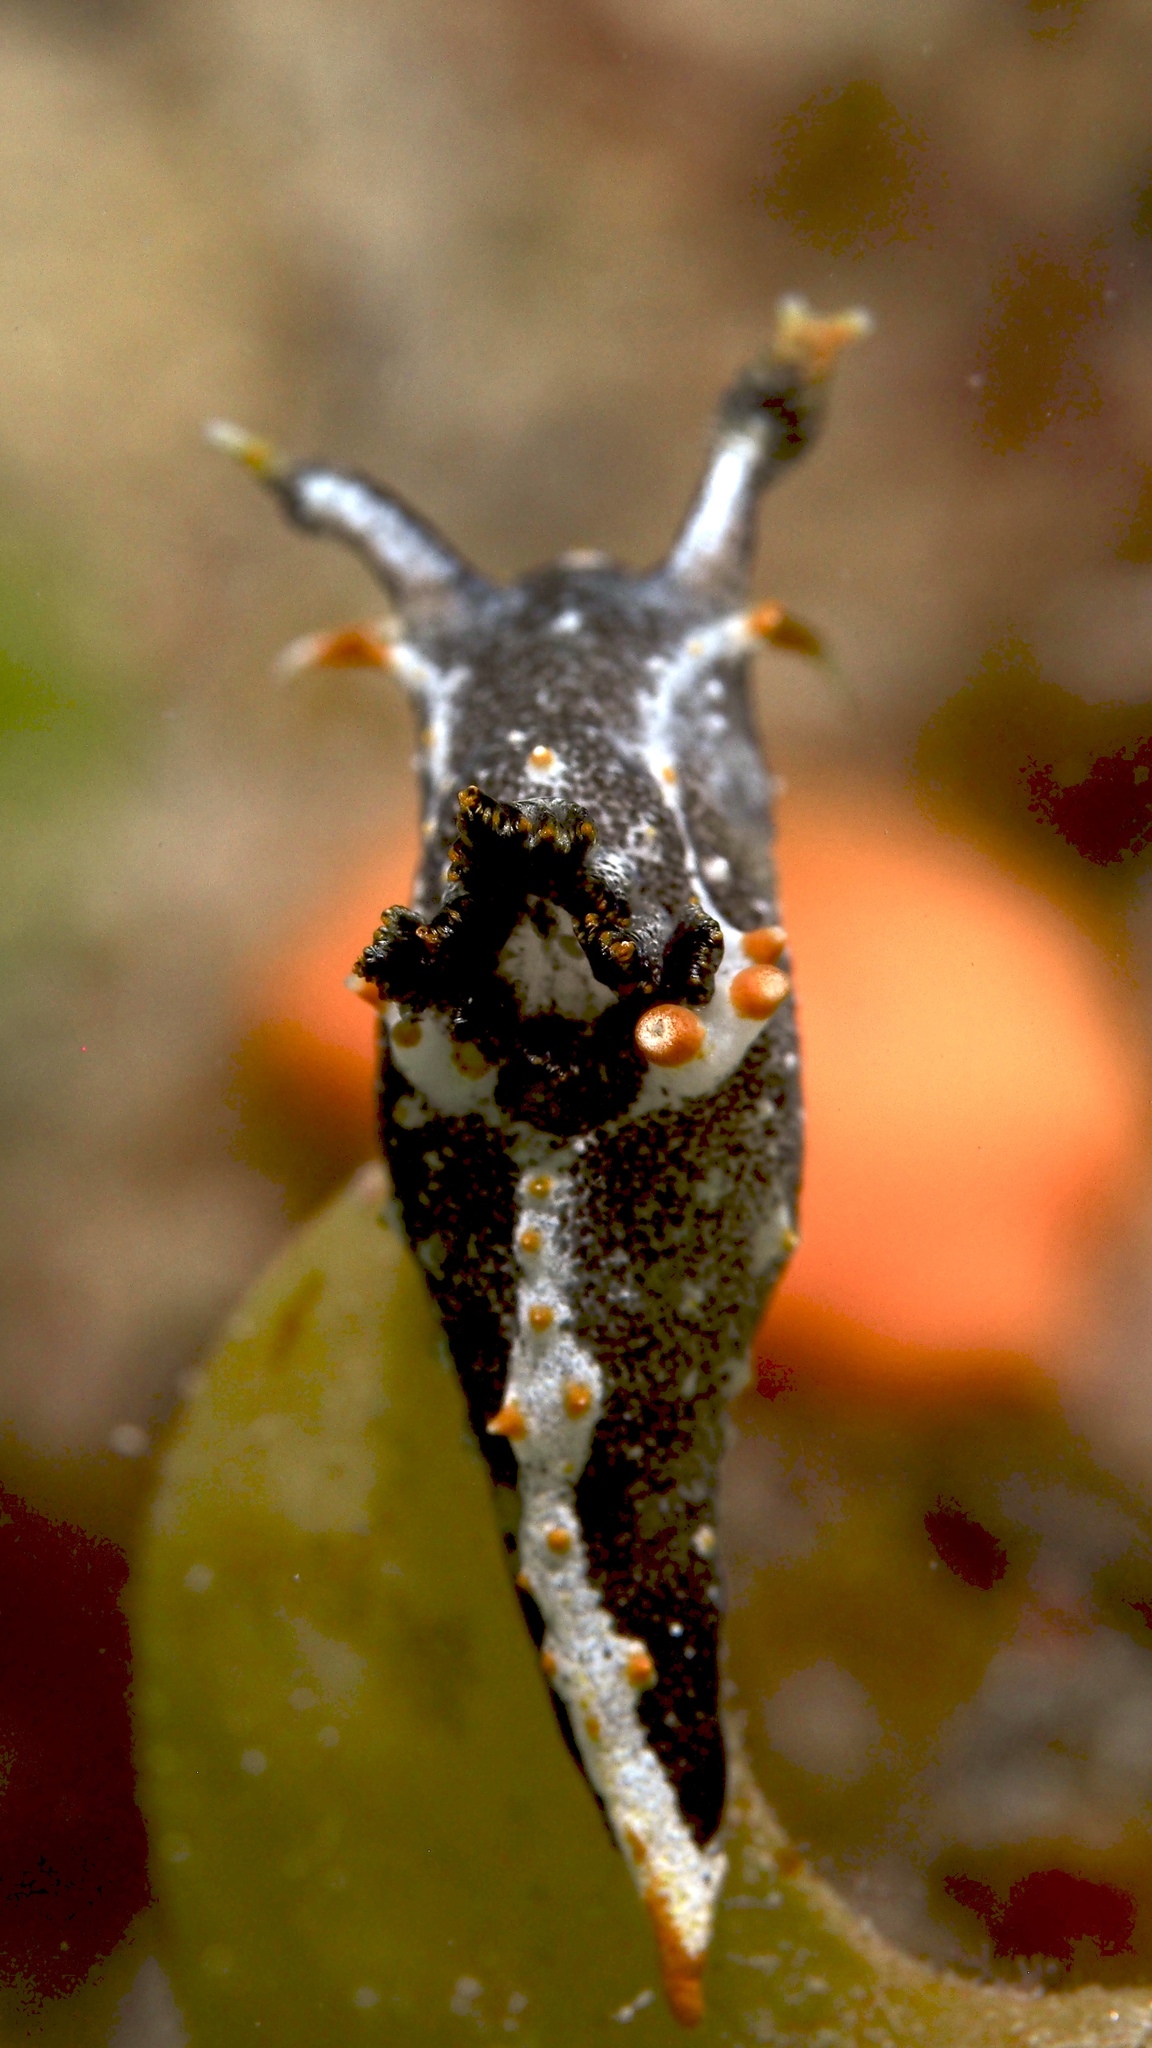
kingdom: Animalia
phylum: Mollusca
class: Gastropoda
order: Nudibranchia
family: Polyceridae
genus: Polycera
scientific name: Polycera hedgpethi
